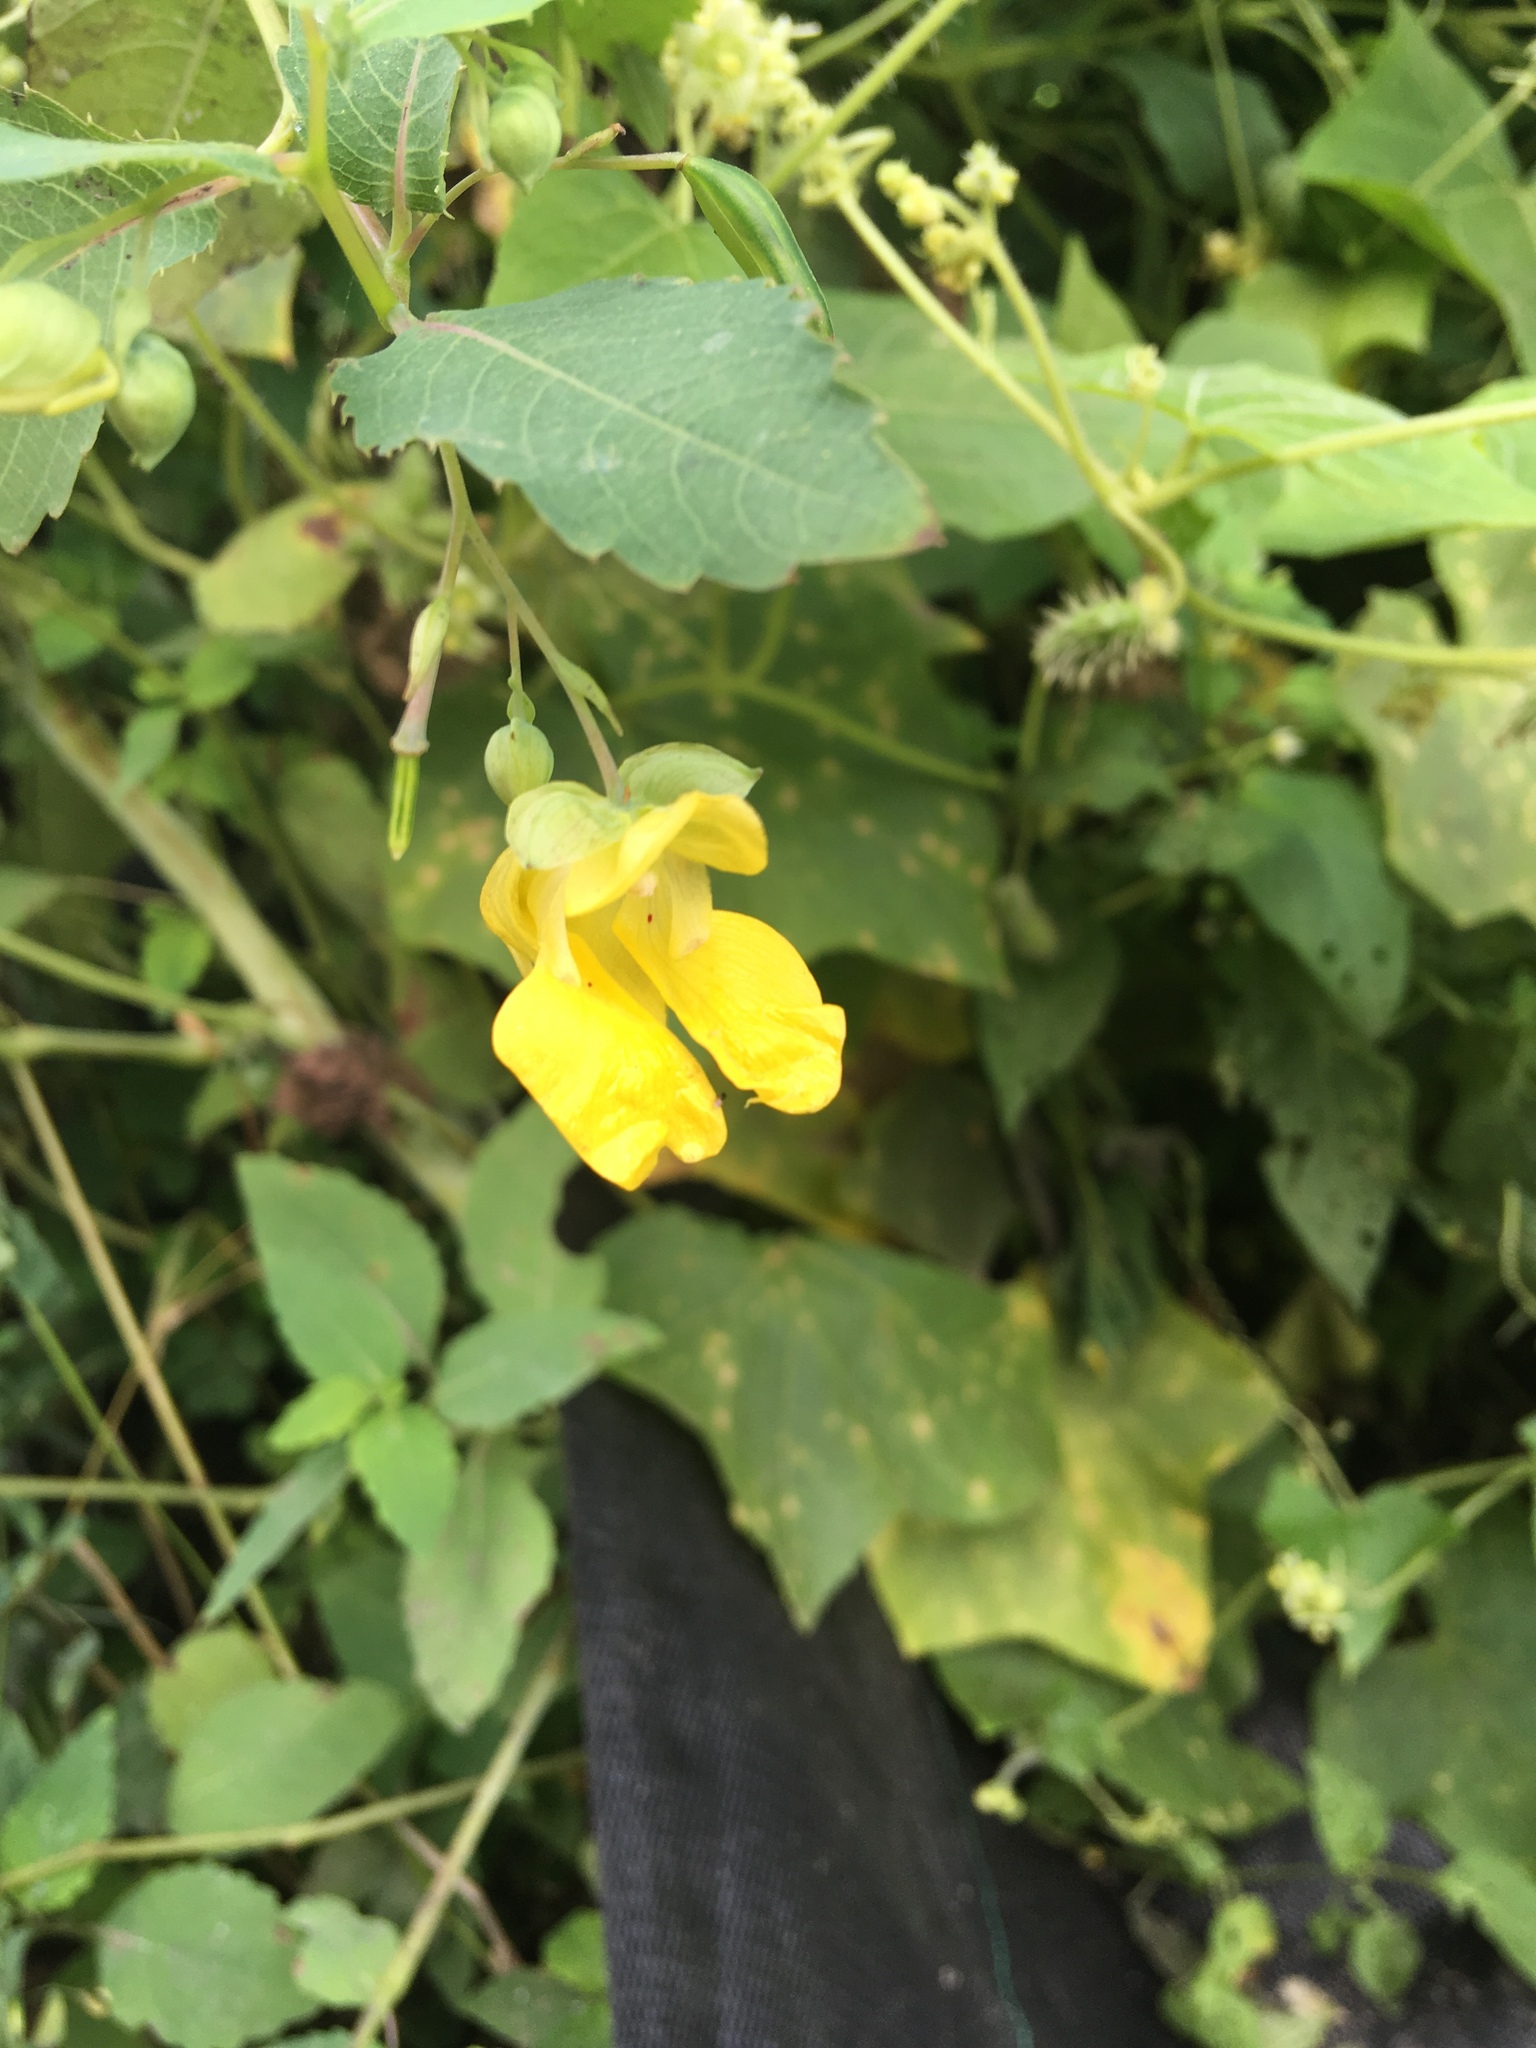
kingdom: Plantae
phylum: Tracheophyta
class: Magnoliopsida
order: Ericales
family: Balsaminaceae
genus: Impatiens
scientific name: Impatiens pallida
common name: Pale snapweed
